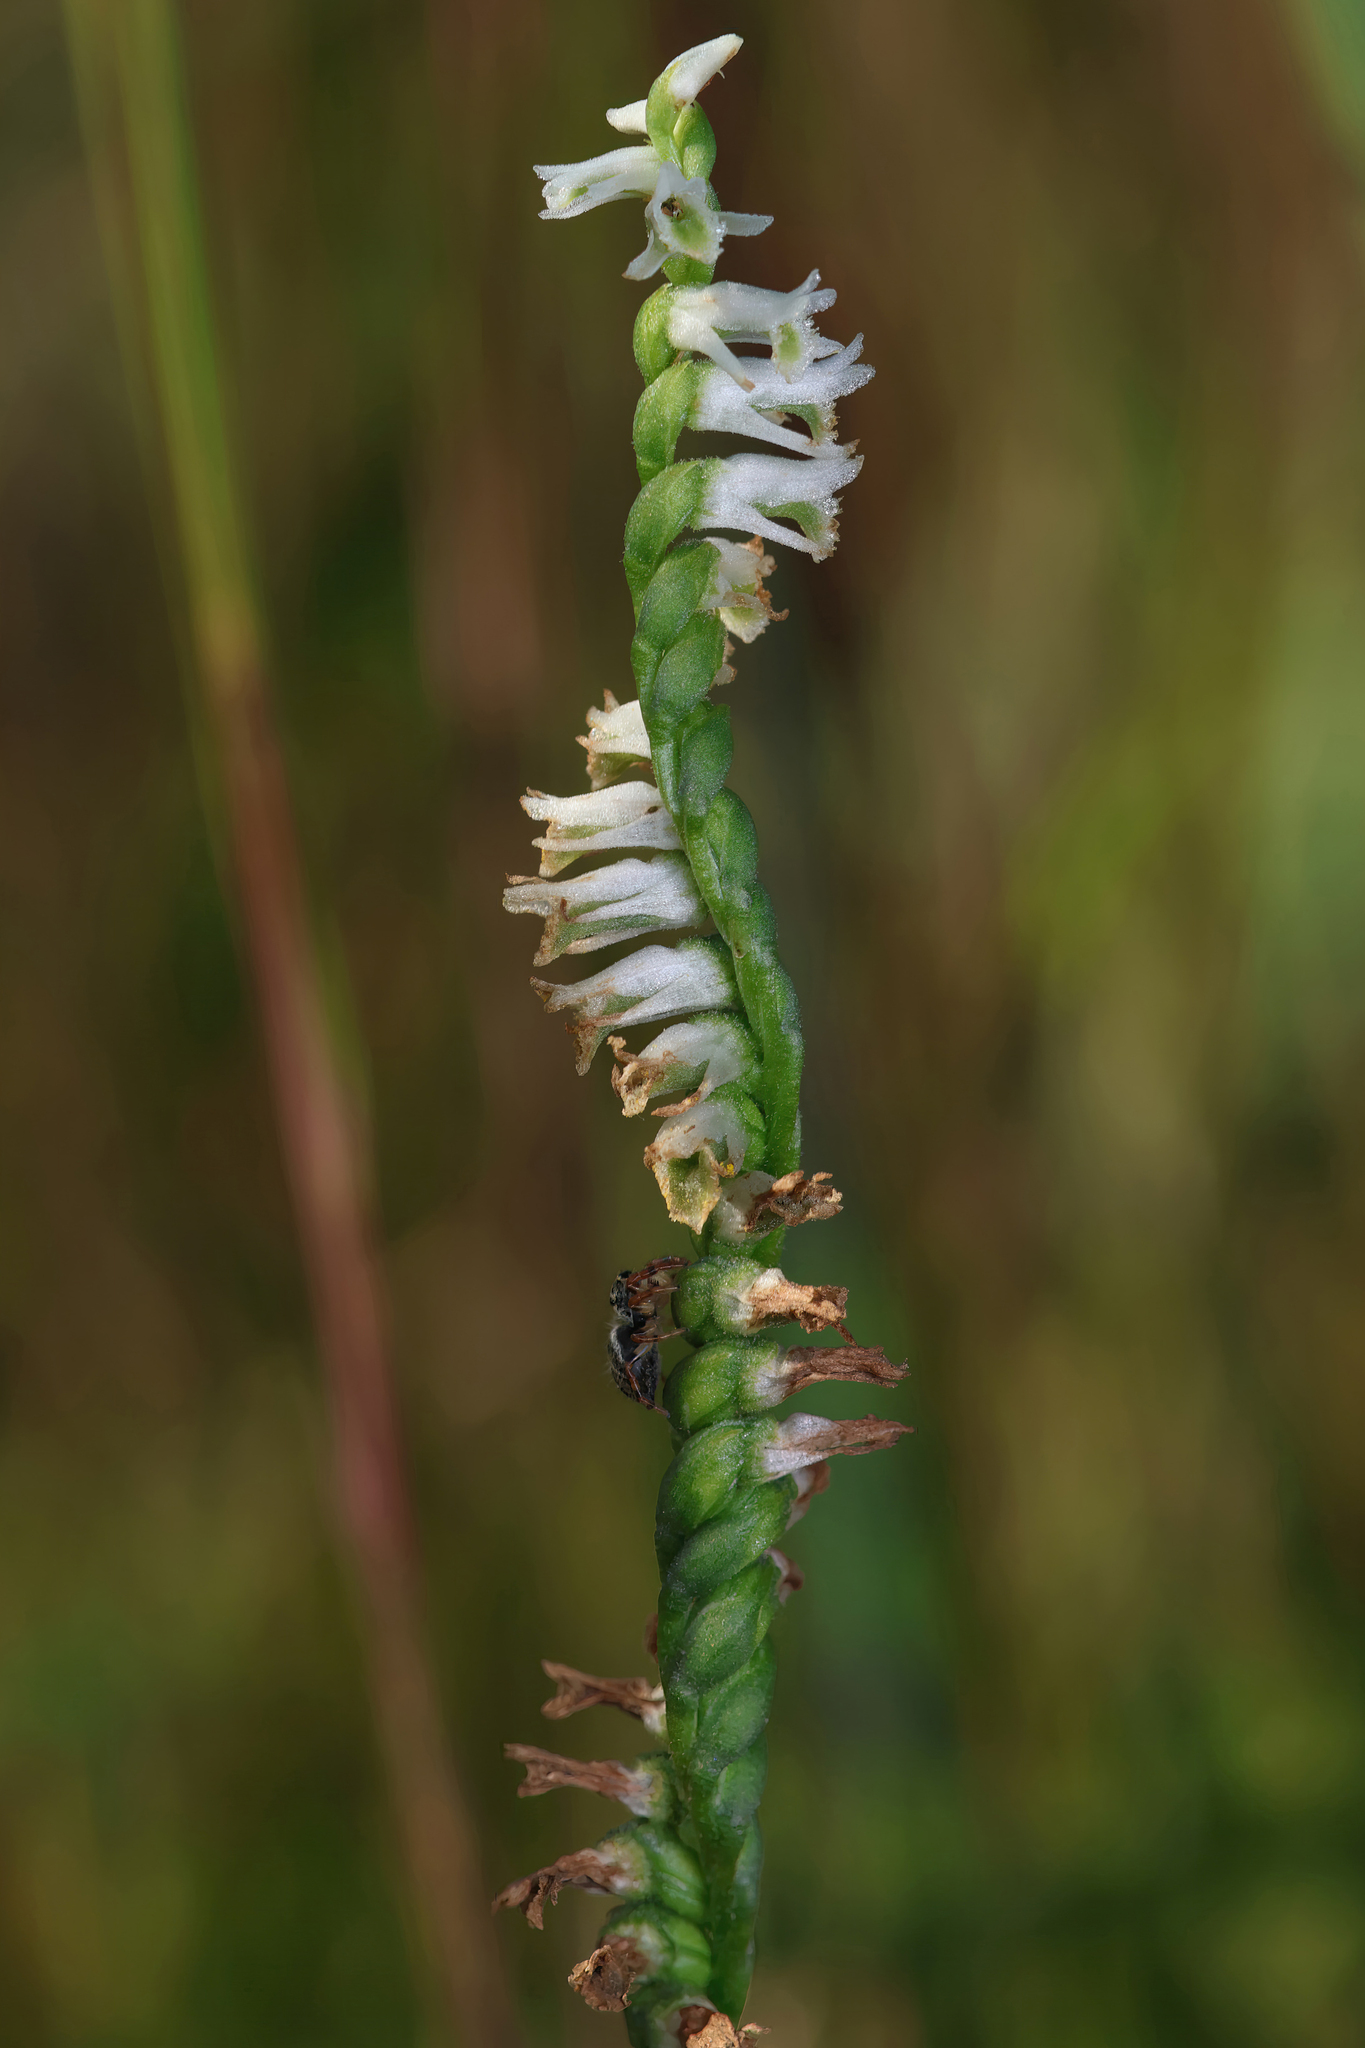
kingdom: Plantae
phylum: Tracheophyta
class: Liliopsida
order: Asparagales
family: Orchidaceae
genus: Spiranthes
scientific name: Spiranthes lacera
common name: Northern slender ladies'-tresses
